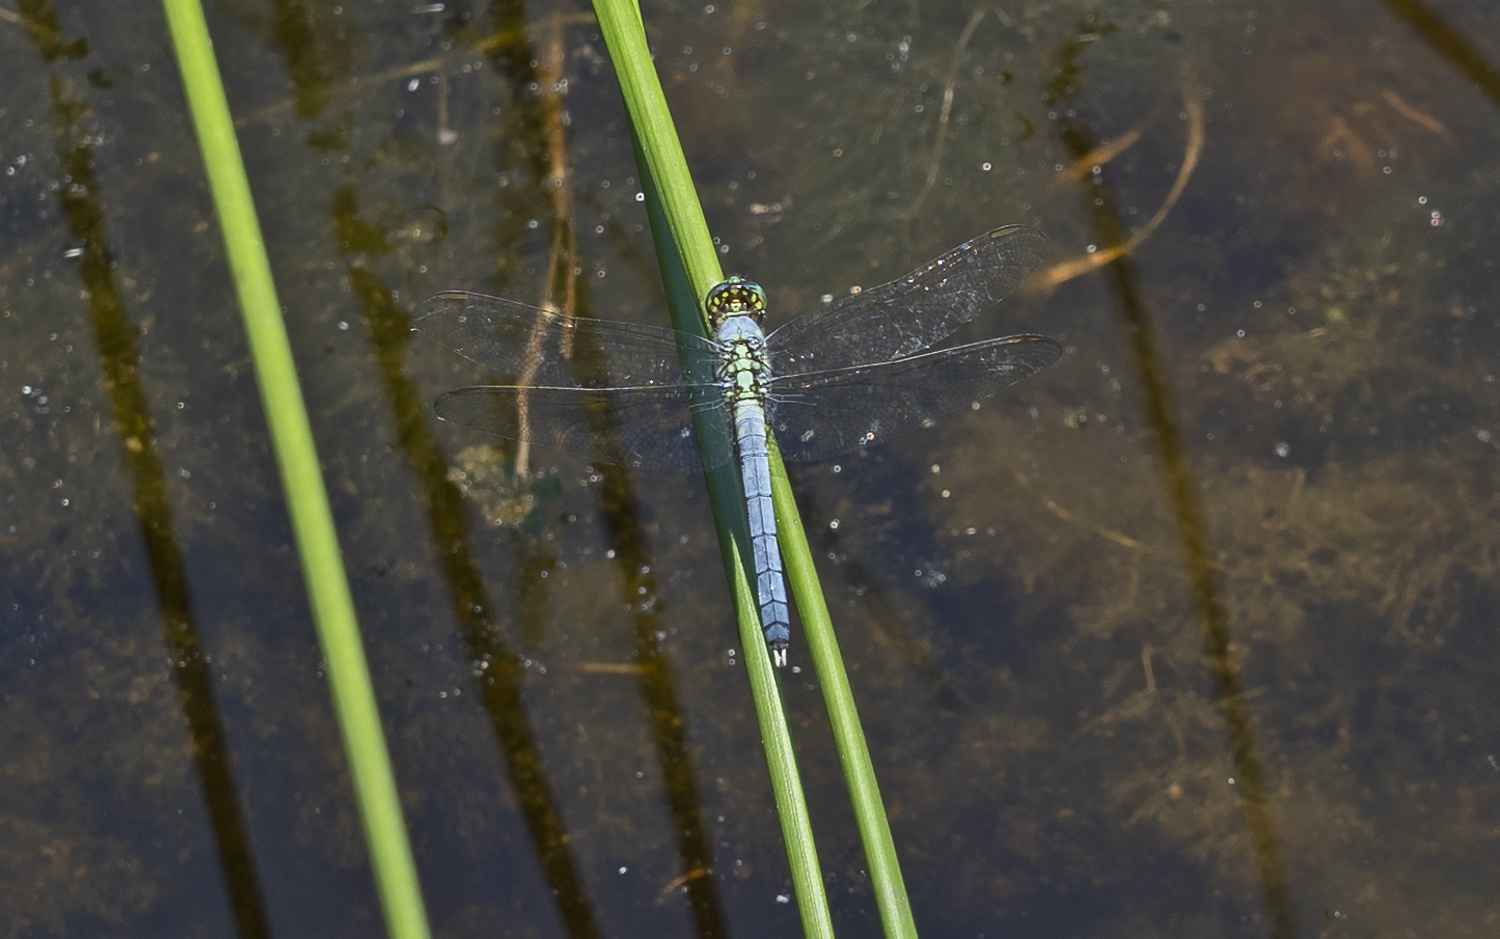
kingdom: Animalia
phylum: Arthropoda
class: Insecta
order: Odonata
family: Libellulidae
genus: Erythemis
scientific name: Erythemis simplicicollis
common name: Eastern pondhawk
